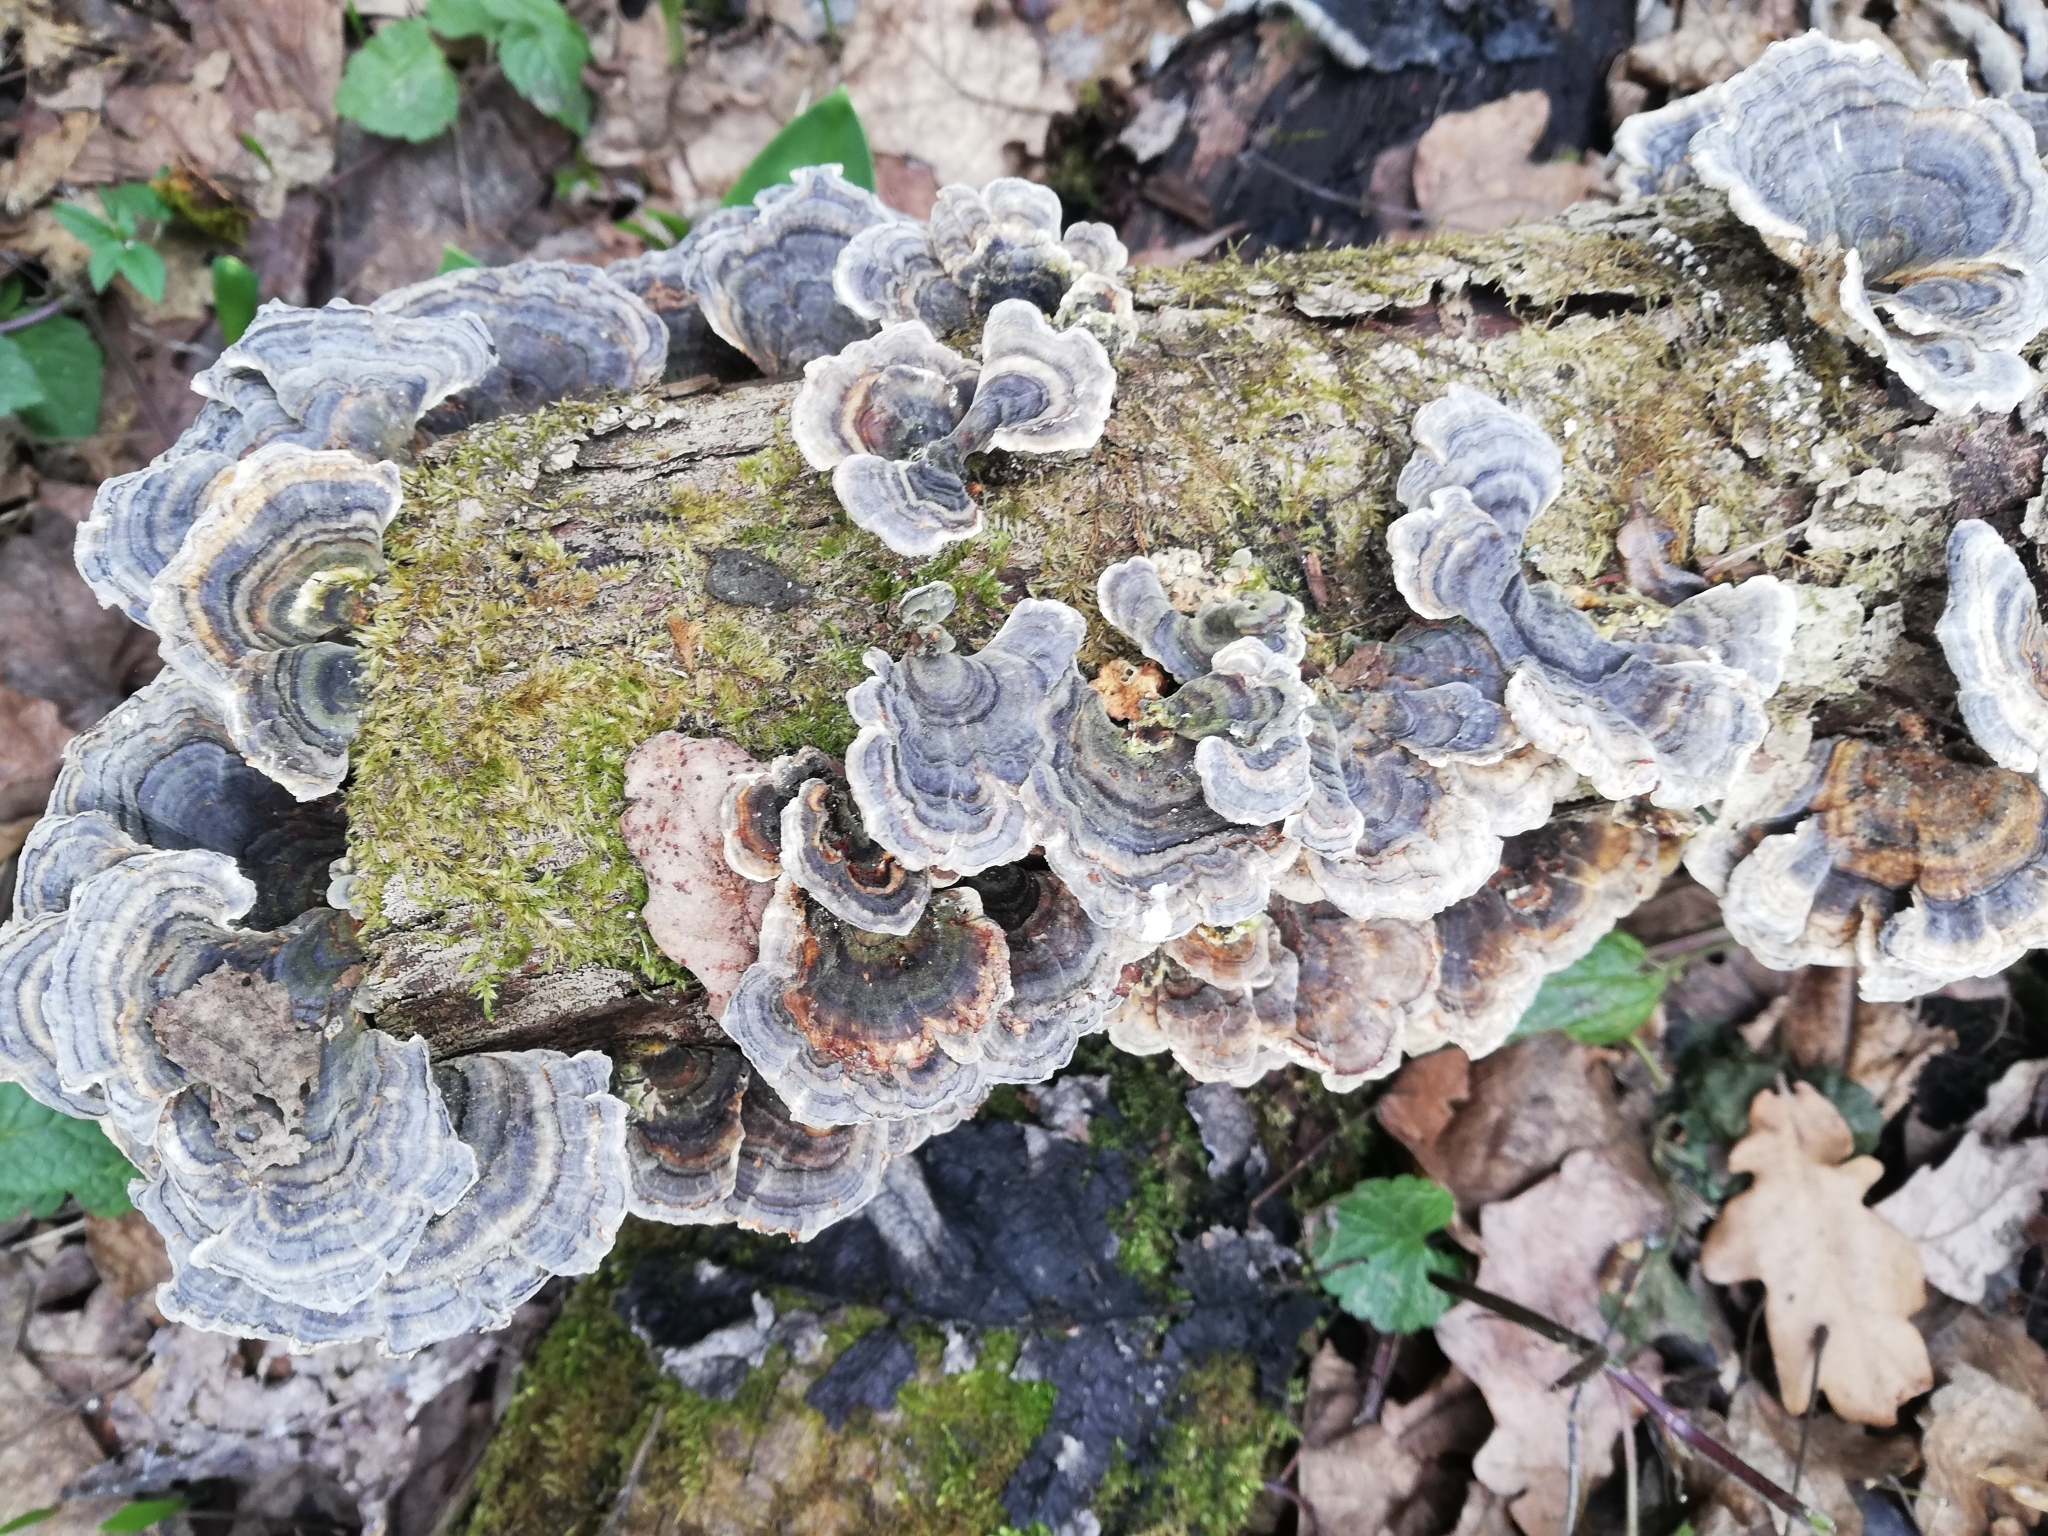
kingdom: Fungi
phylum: Basidiomycota
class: Agaricomycetes
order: Polyporales
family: Polyporaceae
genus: Trametes
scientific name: Trametes versicolor
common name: Turkeytail
